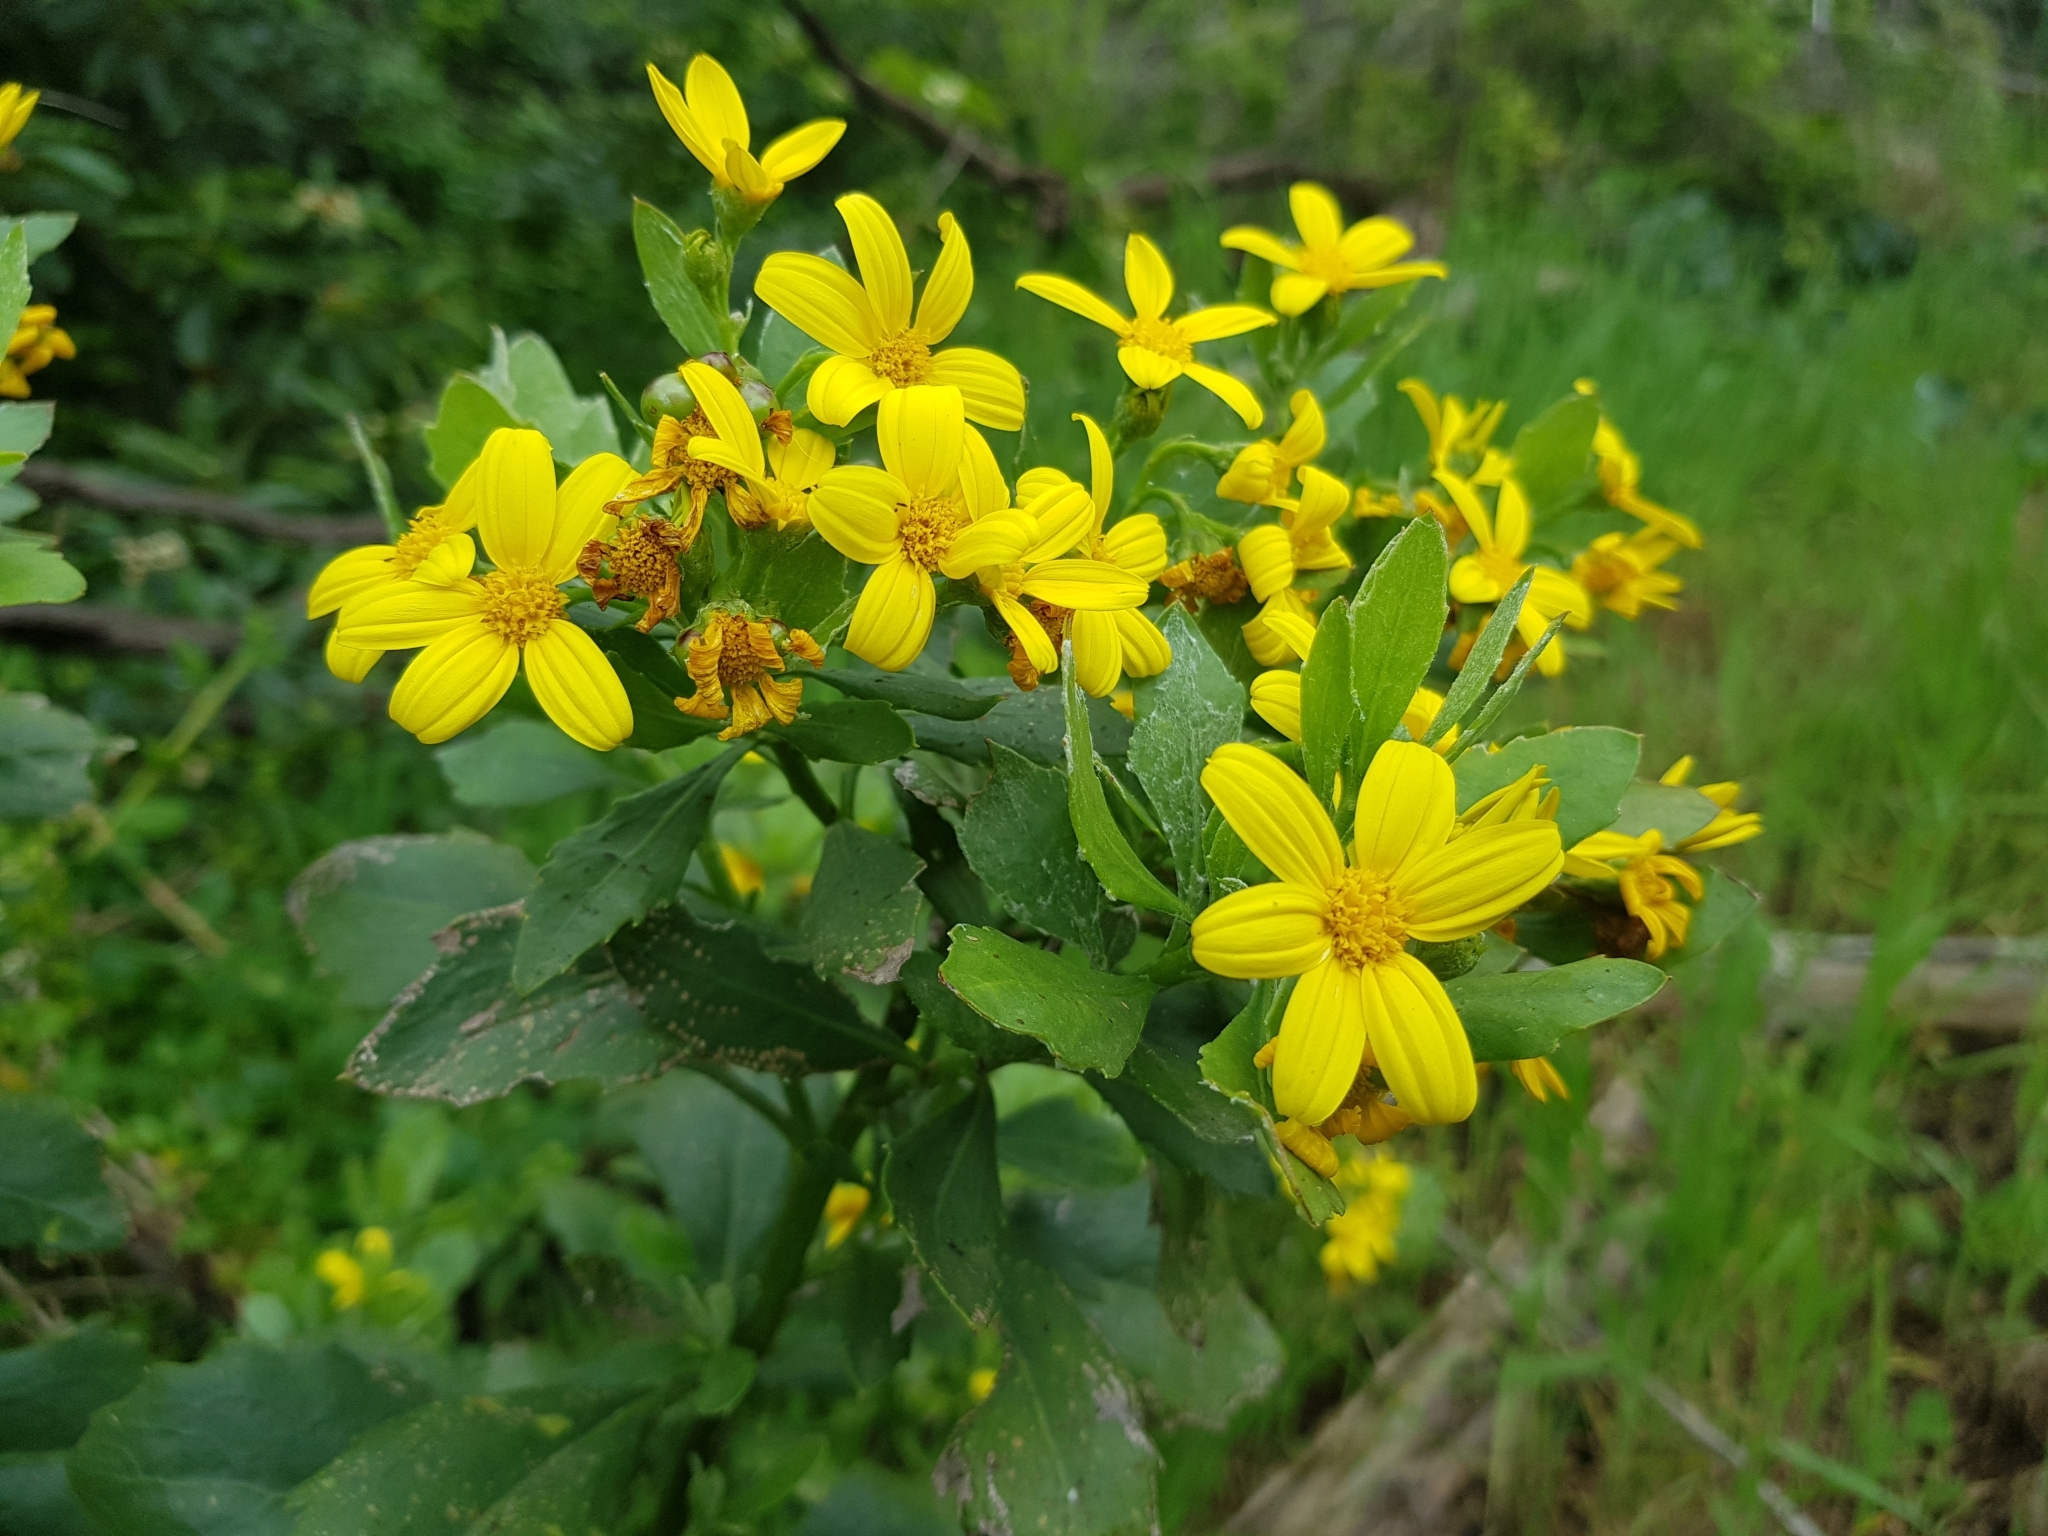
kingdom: Plantae
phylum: Tracheophyta
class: Magnoliopsida
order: Asterales
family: Asteraceae
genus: Osteospermum
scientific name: Osteospermum moniliferum
